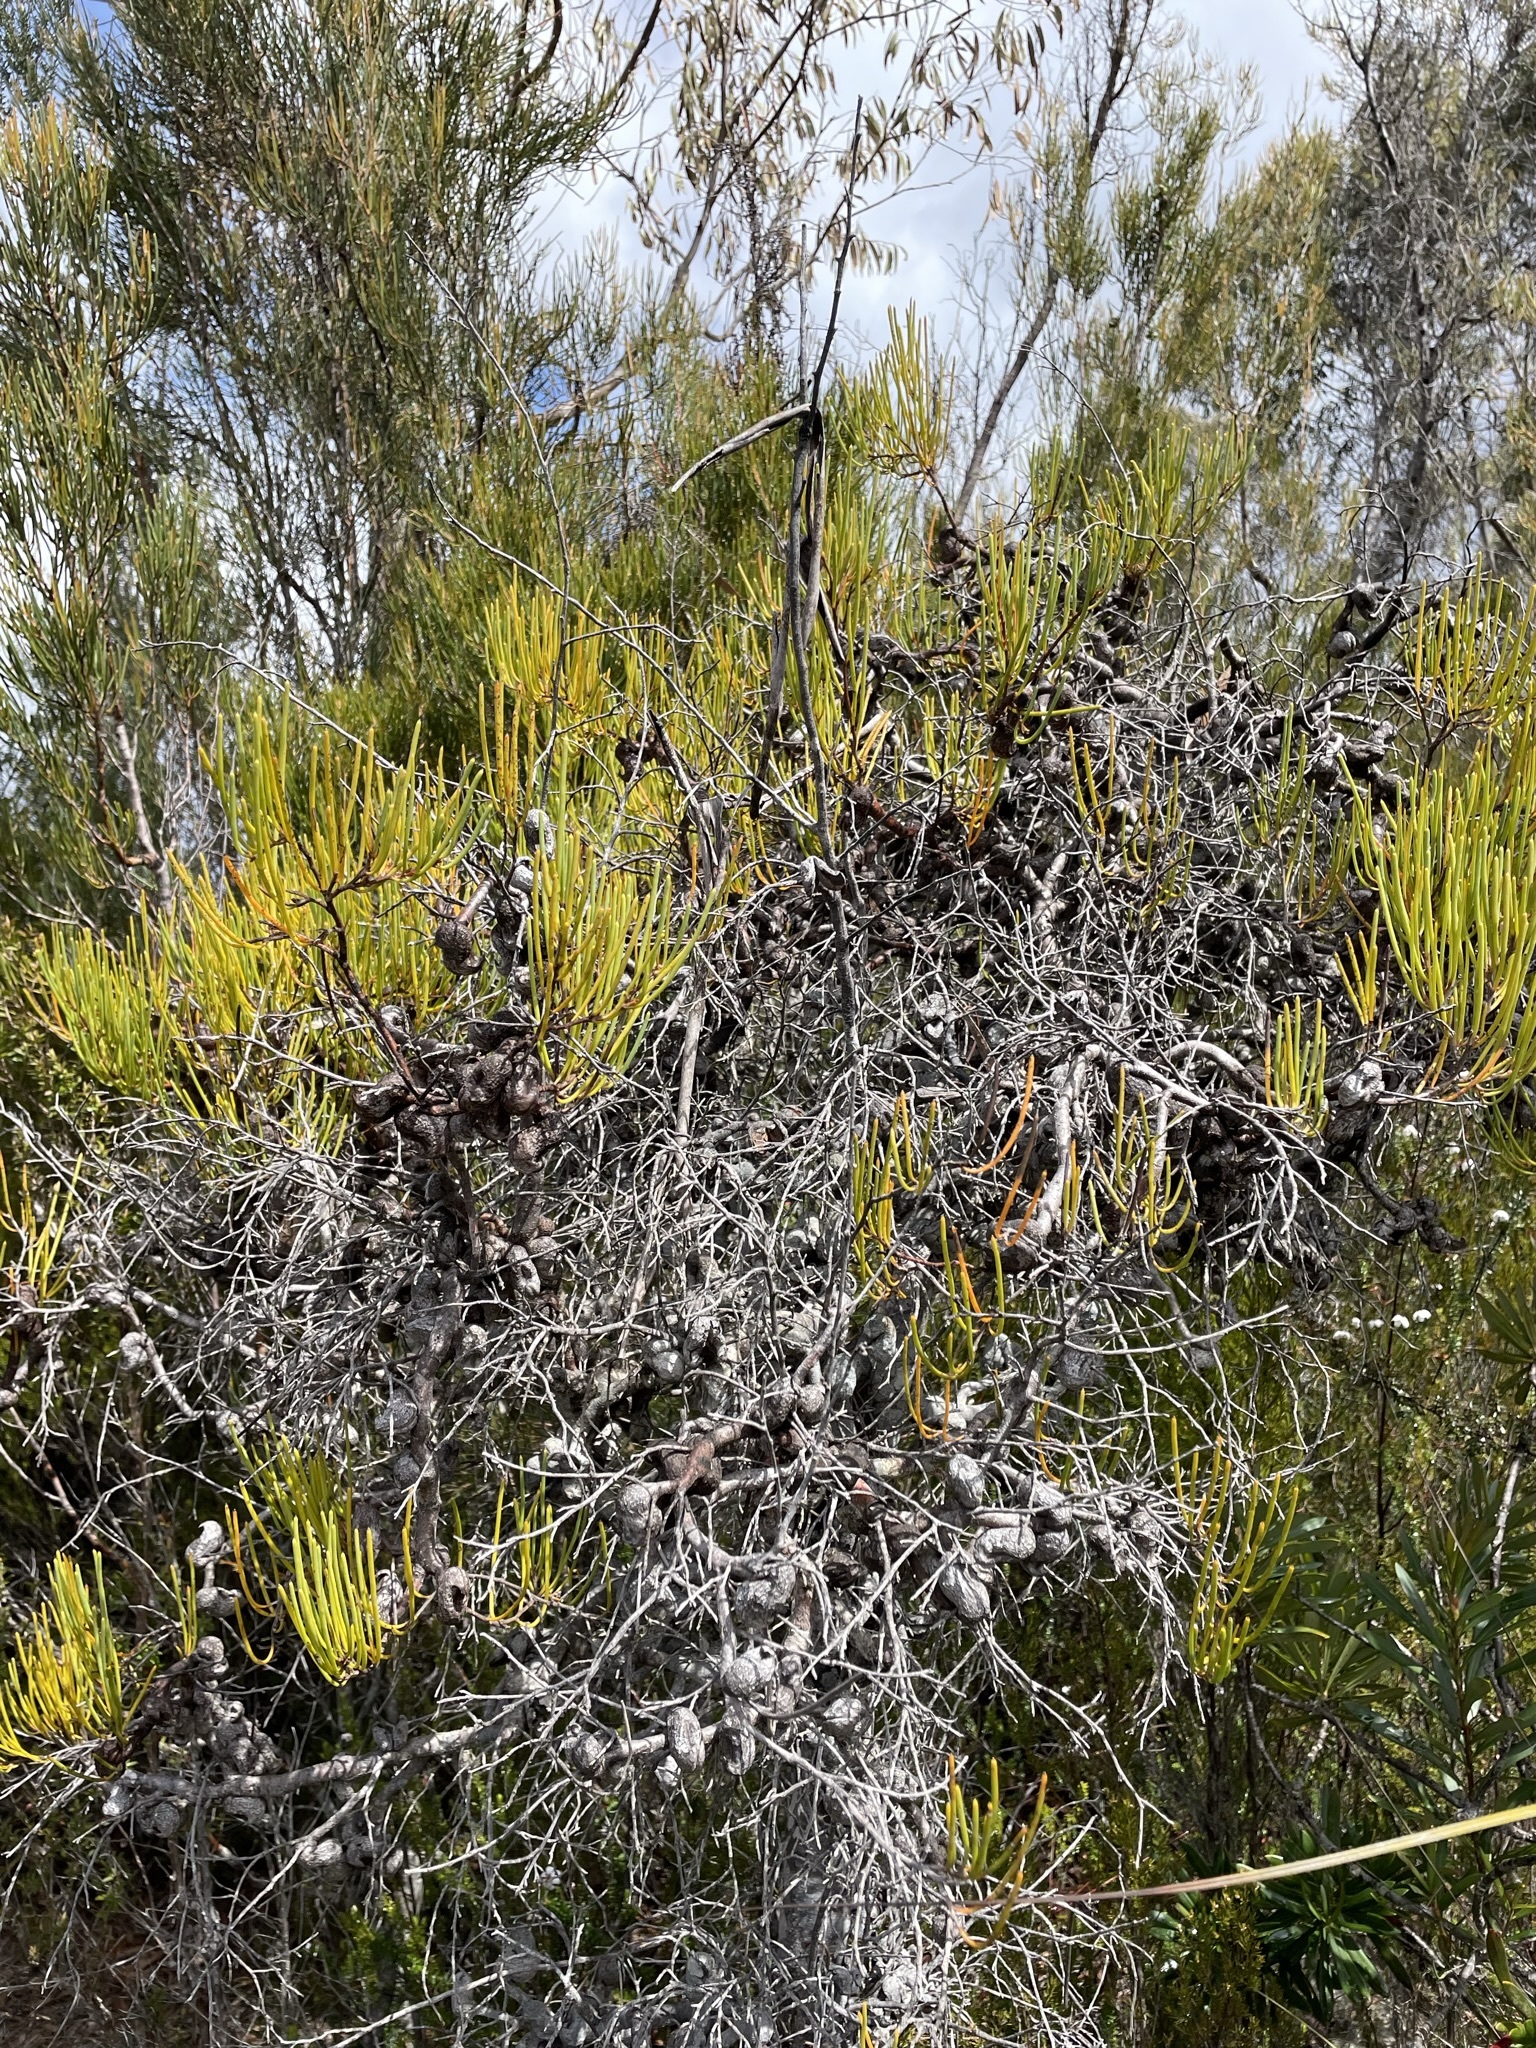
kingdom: Plantae
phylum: Tracheophyta
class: Magnoliopsida
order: Proteales
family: Proteaceae
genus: Hakea
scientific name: Hakea epiglottis
